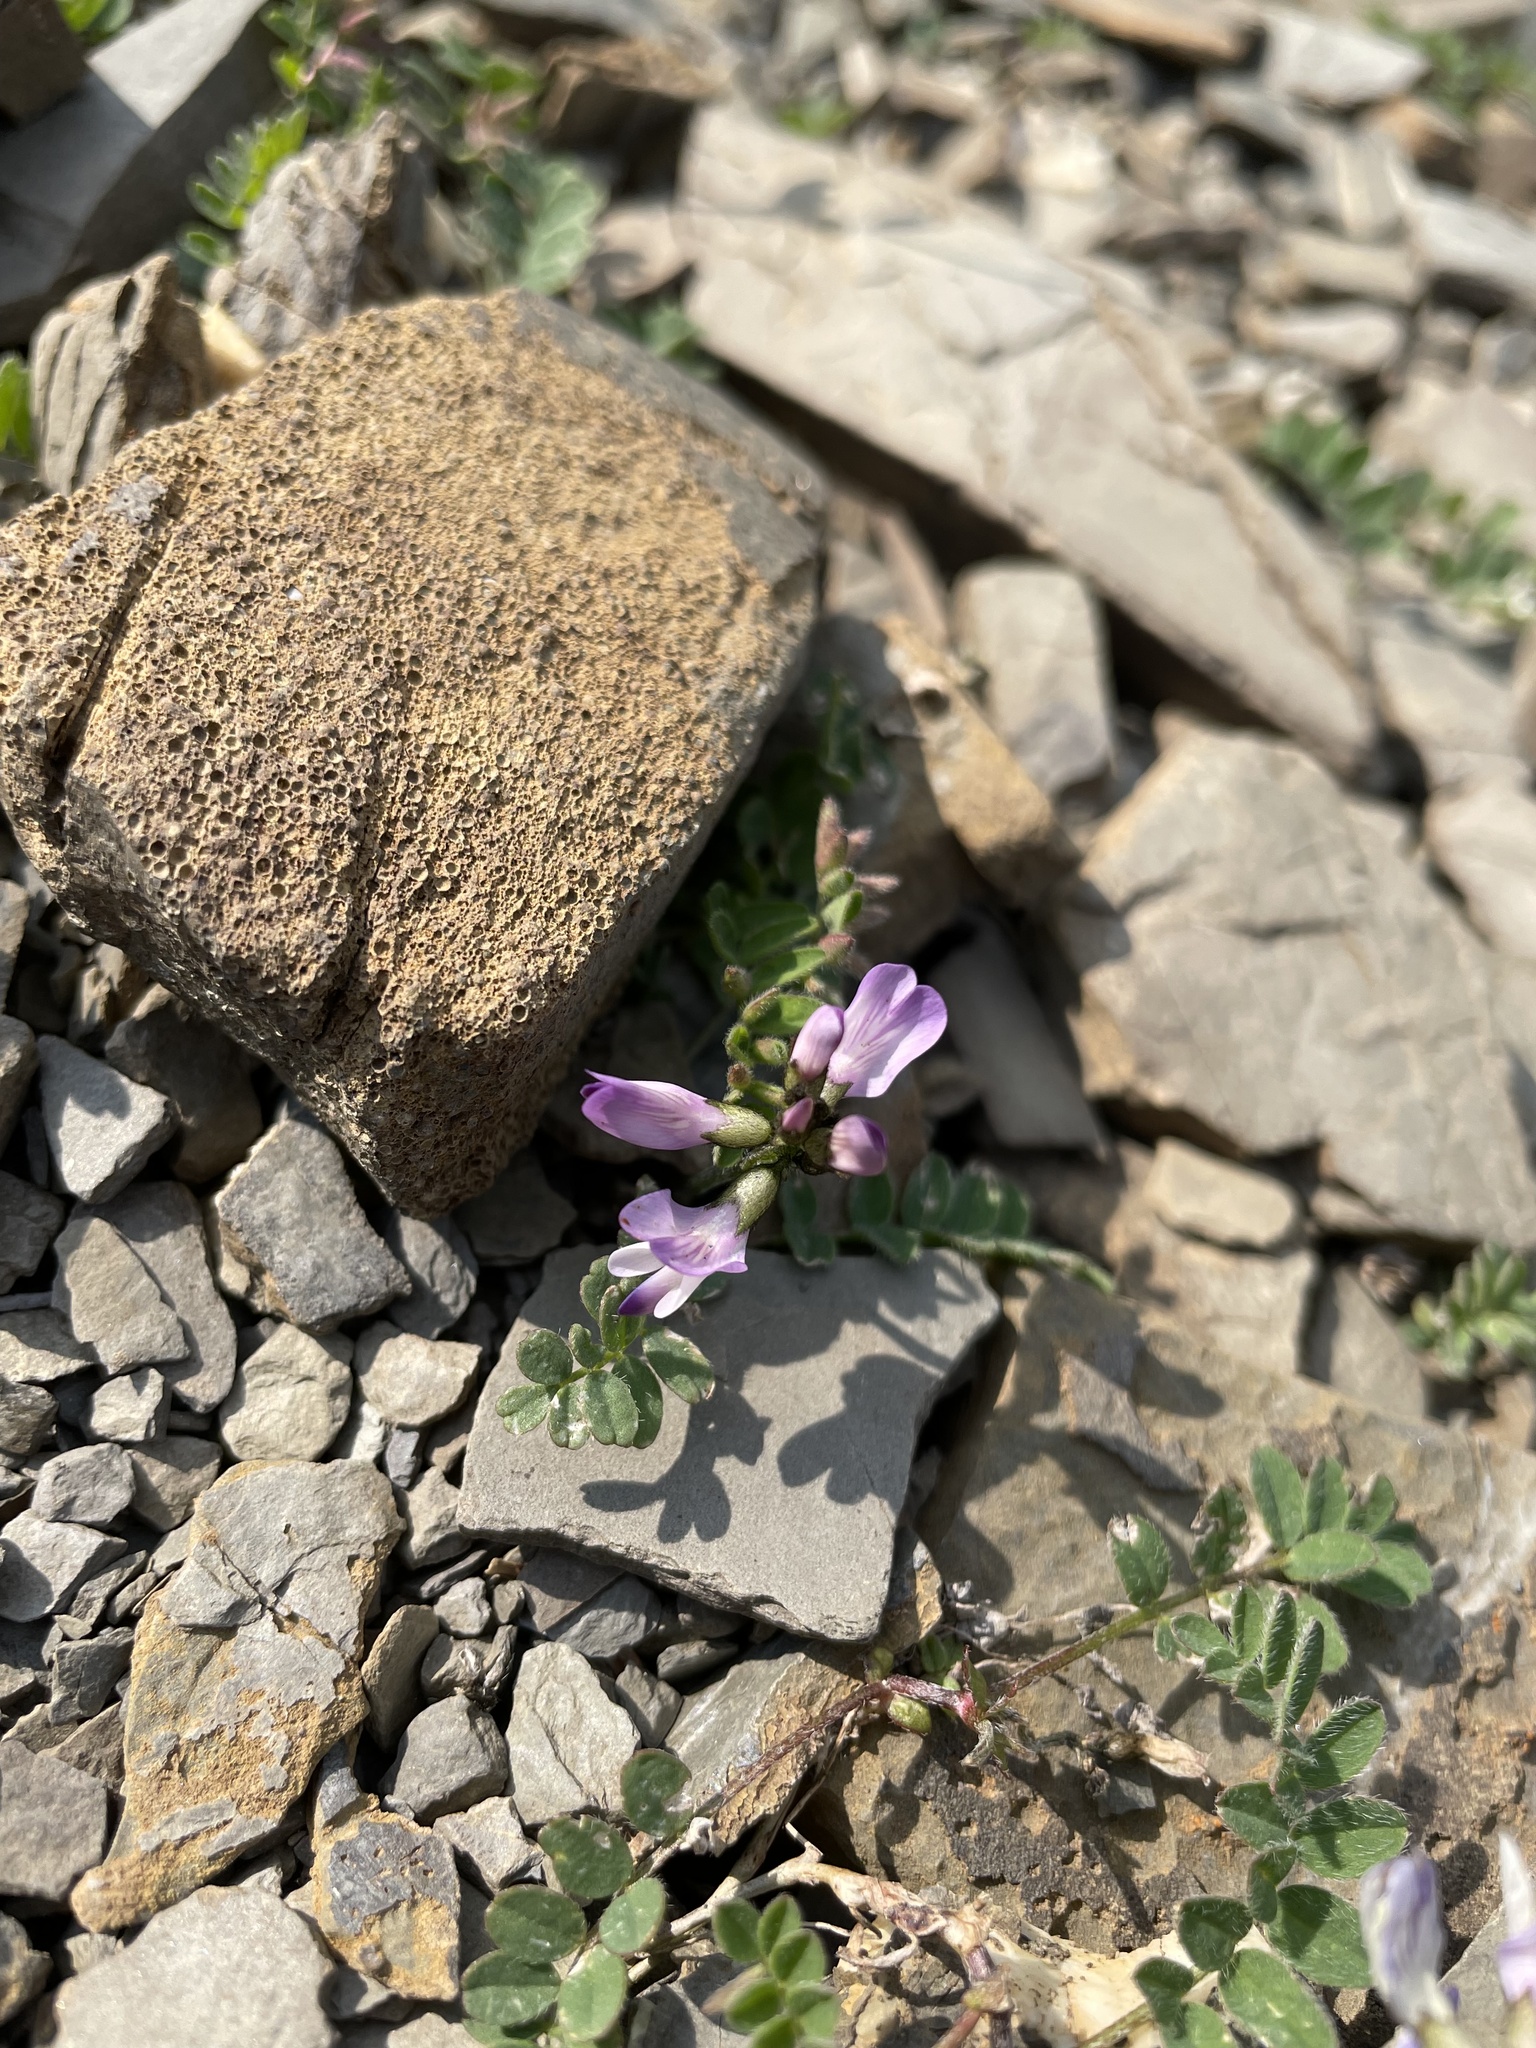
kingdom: Plantae
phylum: Tracheophyta
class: Magnoliopsida
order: Fabales
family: Fabaceae
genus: Astragalus
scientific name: Astragalus alpinus
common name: Alpine milk-vetch
